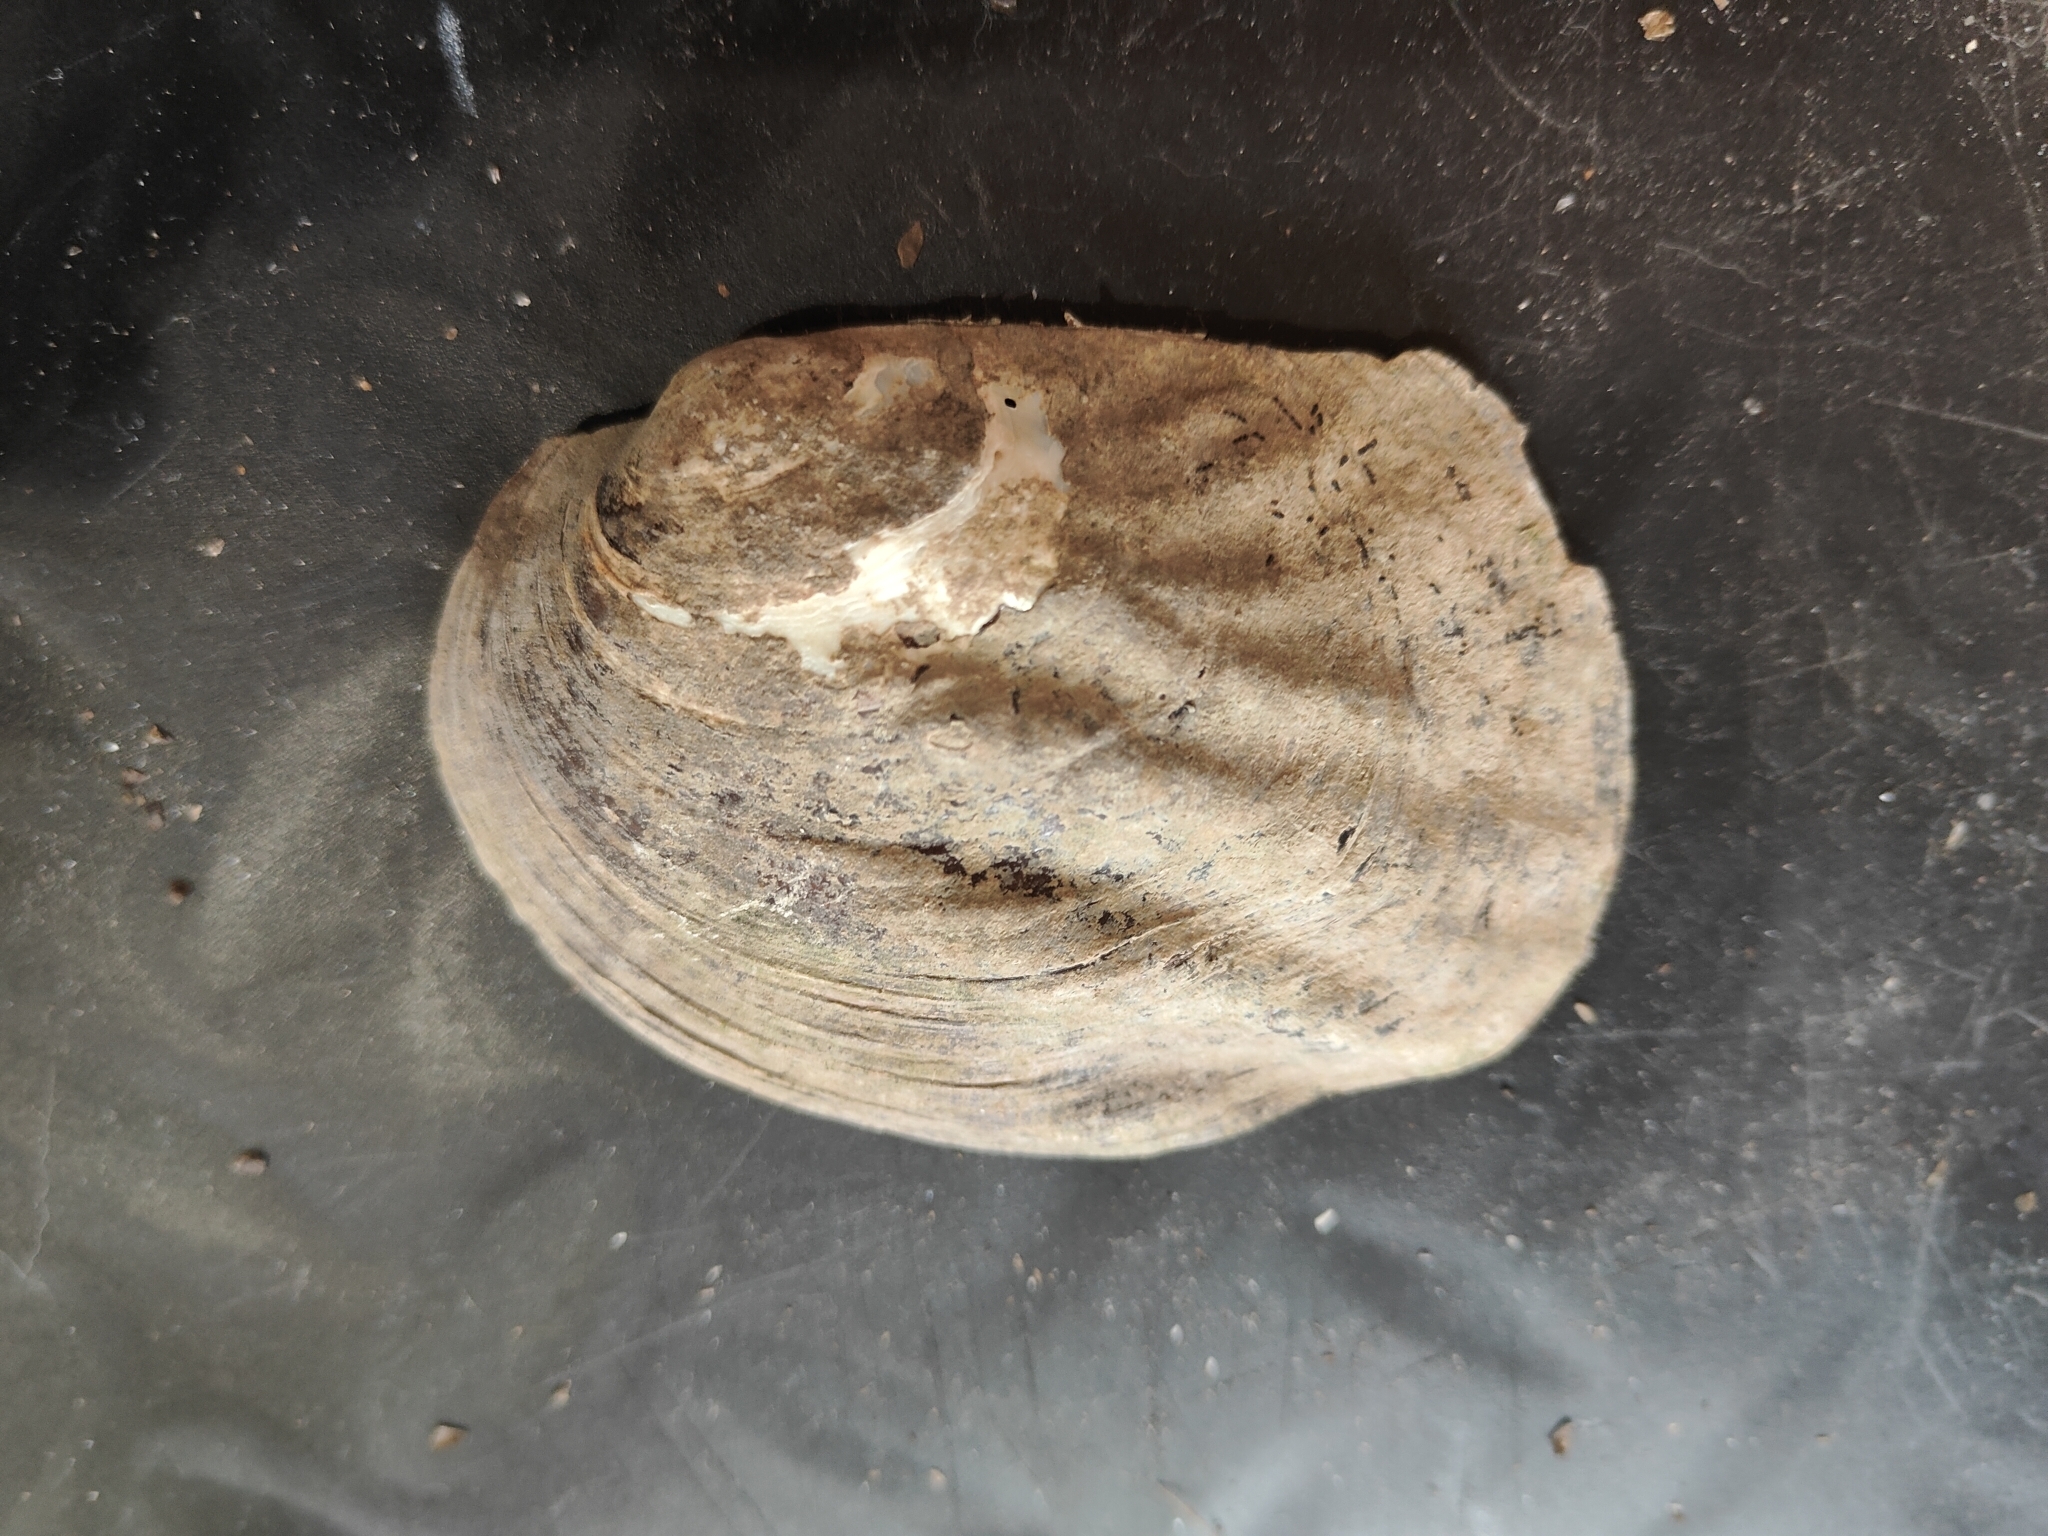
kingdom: Animalia
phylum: Mollusca
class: Bivalvia
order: Unionida
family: Unionidae
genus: Amblema
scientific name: Amblema plicata
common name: Threeridge
